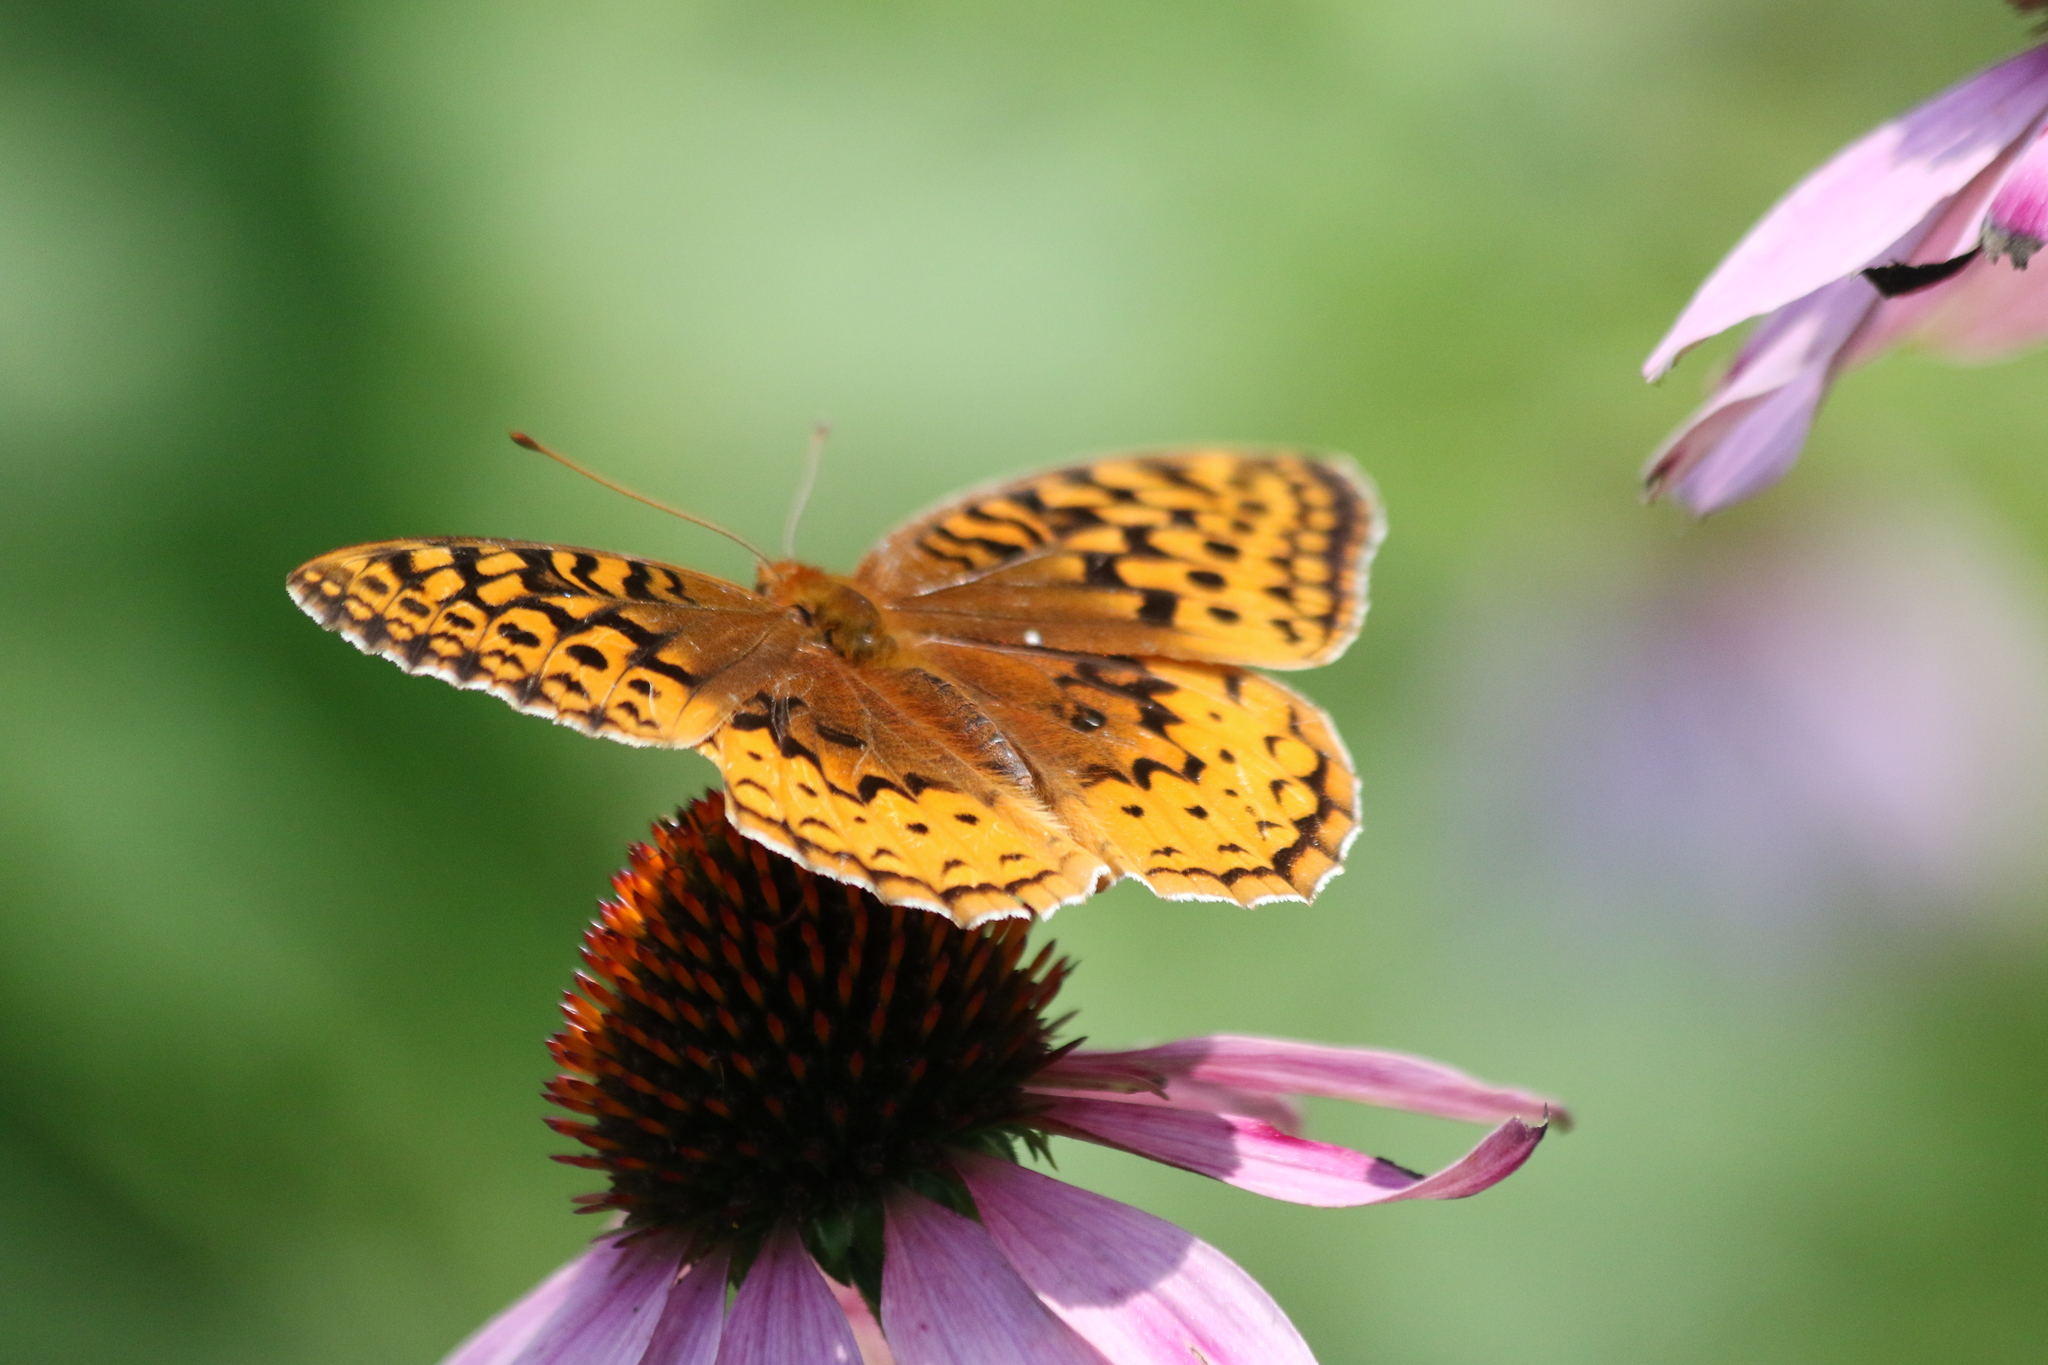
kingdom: Animalia
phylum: Arthropoda
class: Insecta
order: Lepidoptera
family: Nymphalidae
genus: Speyeria
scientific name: Speyeria cybele
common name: Great spangled fritillary
